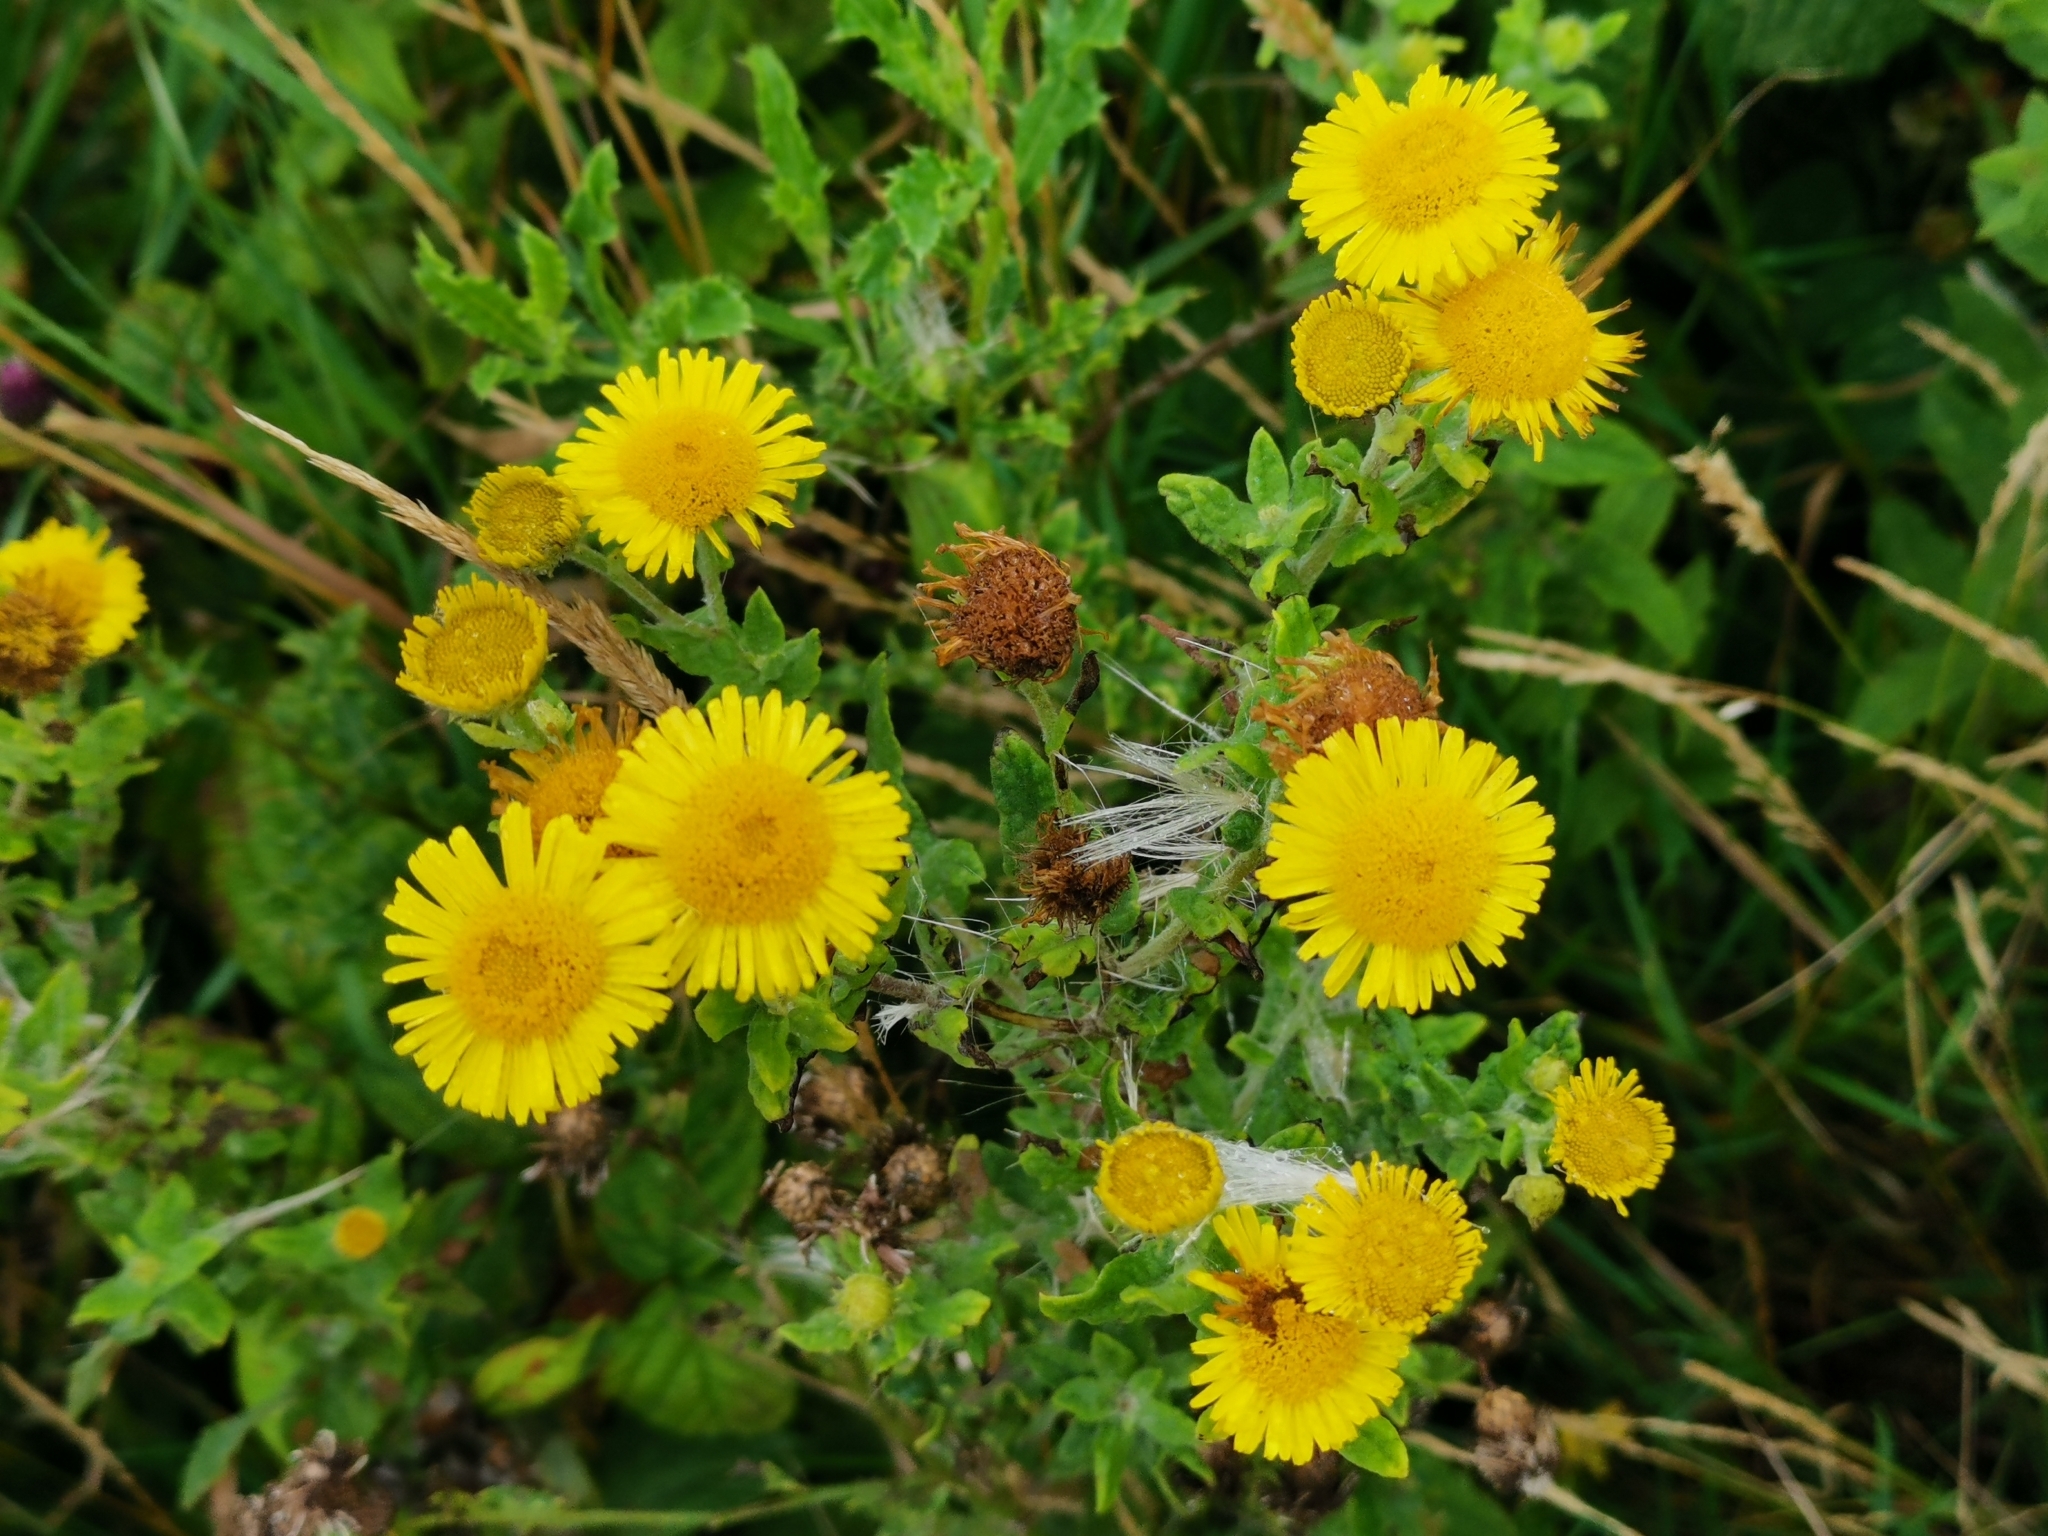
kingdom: Plantae
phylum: Tracheophyta
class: Magnoliopsida
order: Asterales
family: Asteraceae
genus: Pulicaria
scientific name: Pulicaria dysenterica
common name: Common fleabane
